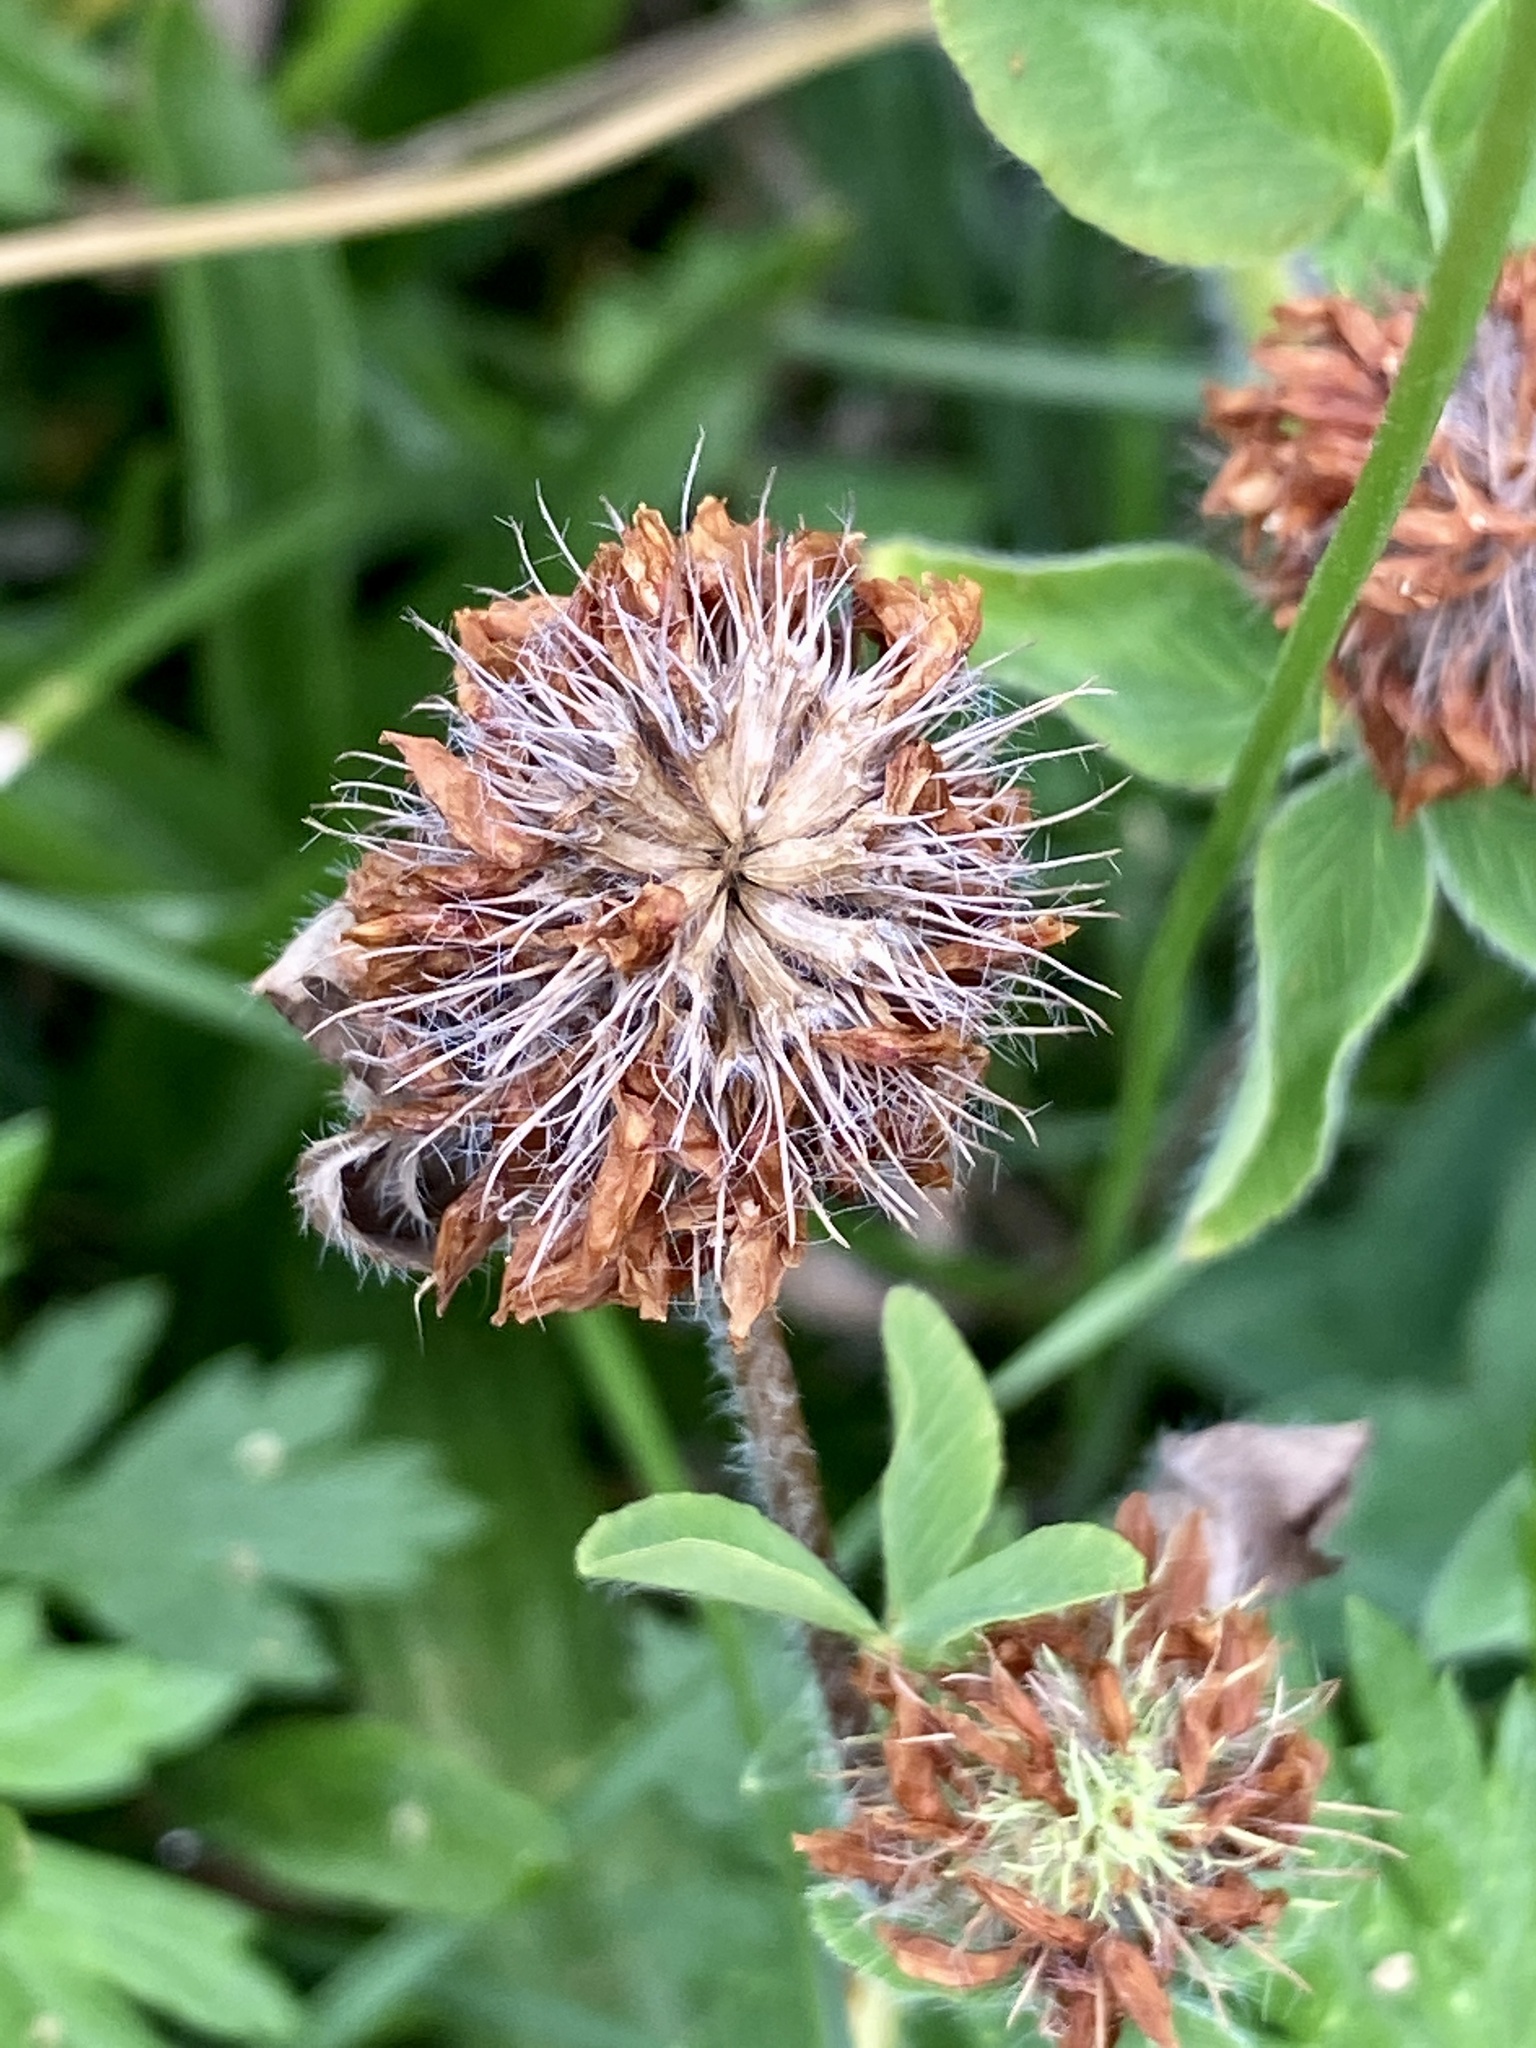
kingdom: Plantae
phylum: Tracheophyta
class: Magnoliopsida
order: Fabales
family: Fabaceae
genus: Trifolium
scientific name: Trifolium pratense
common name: Red clover
